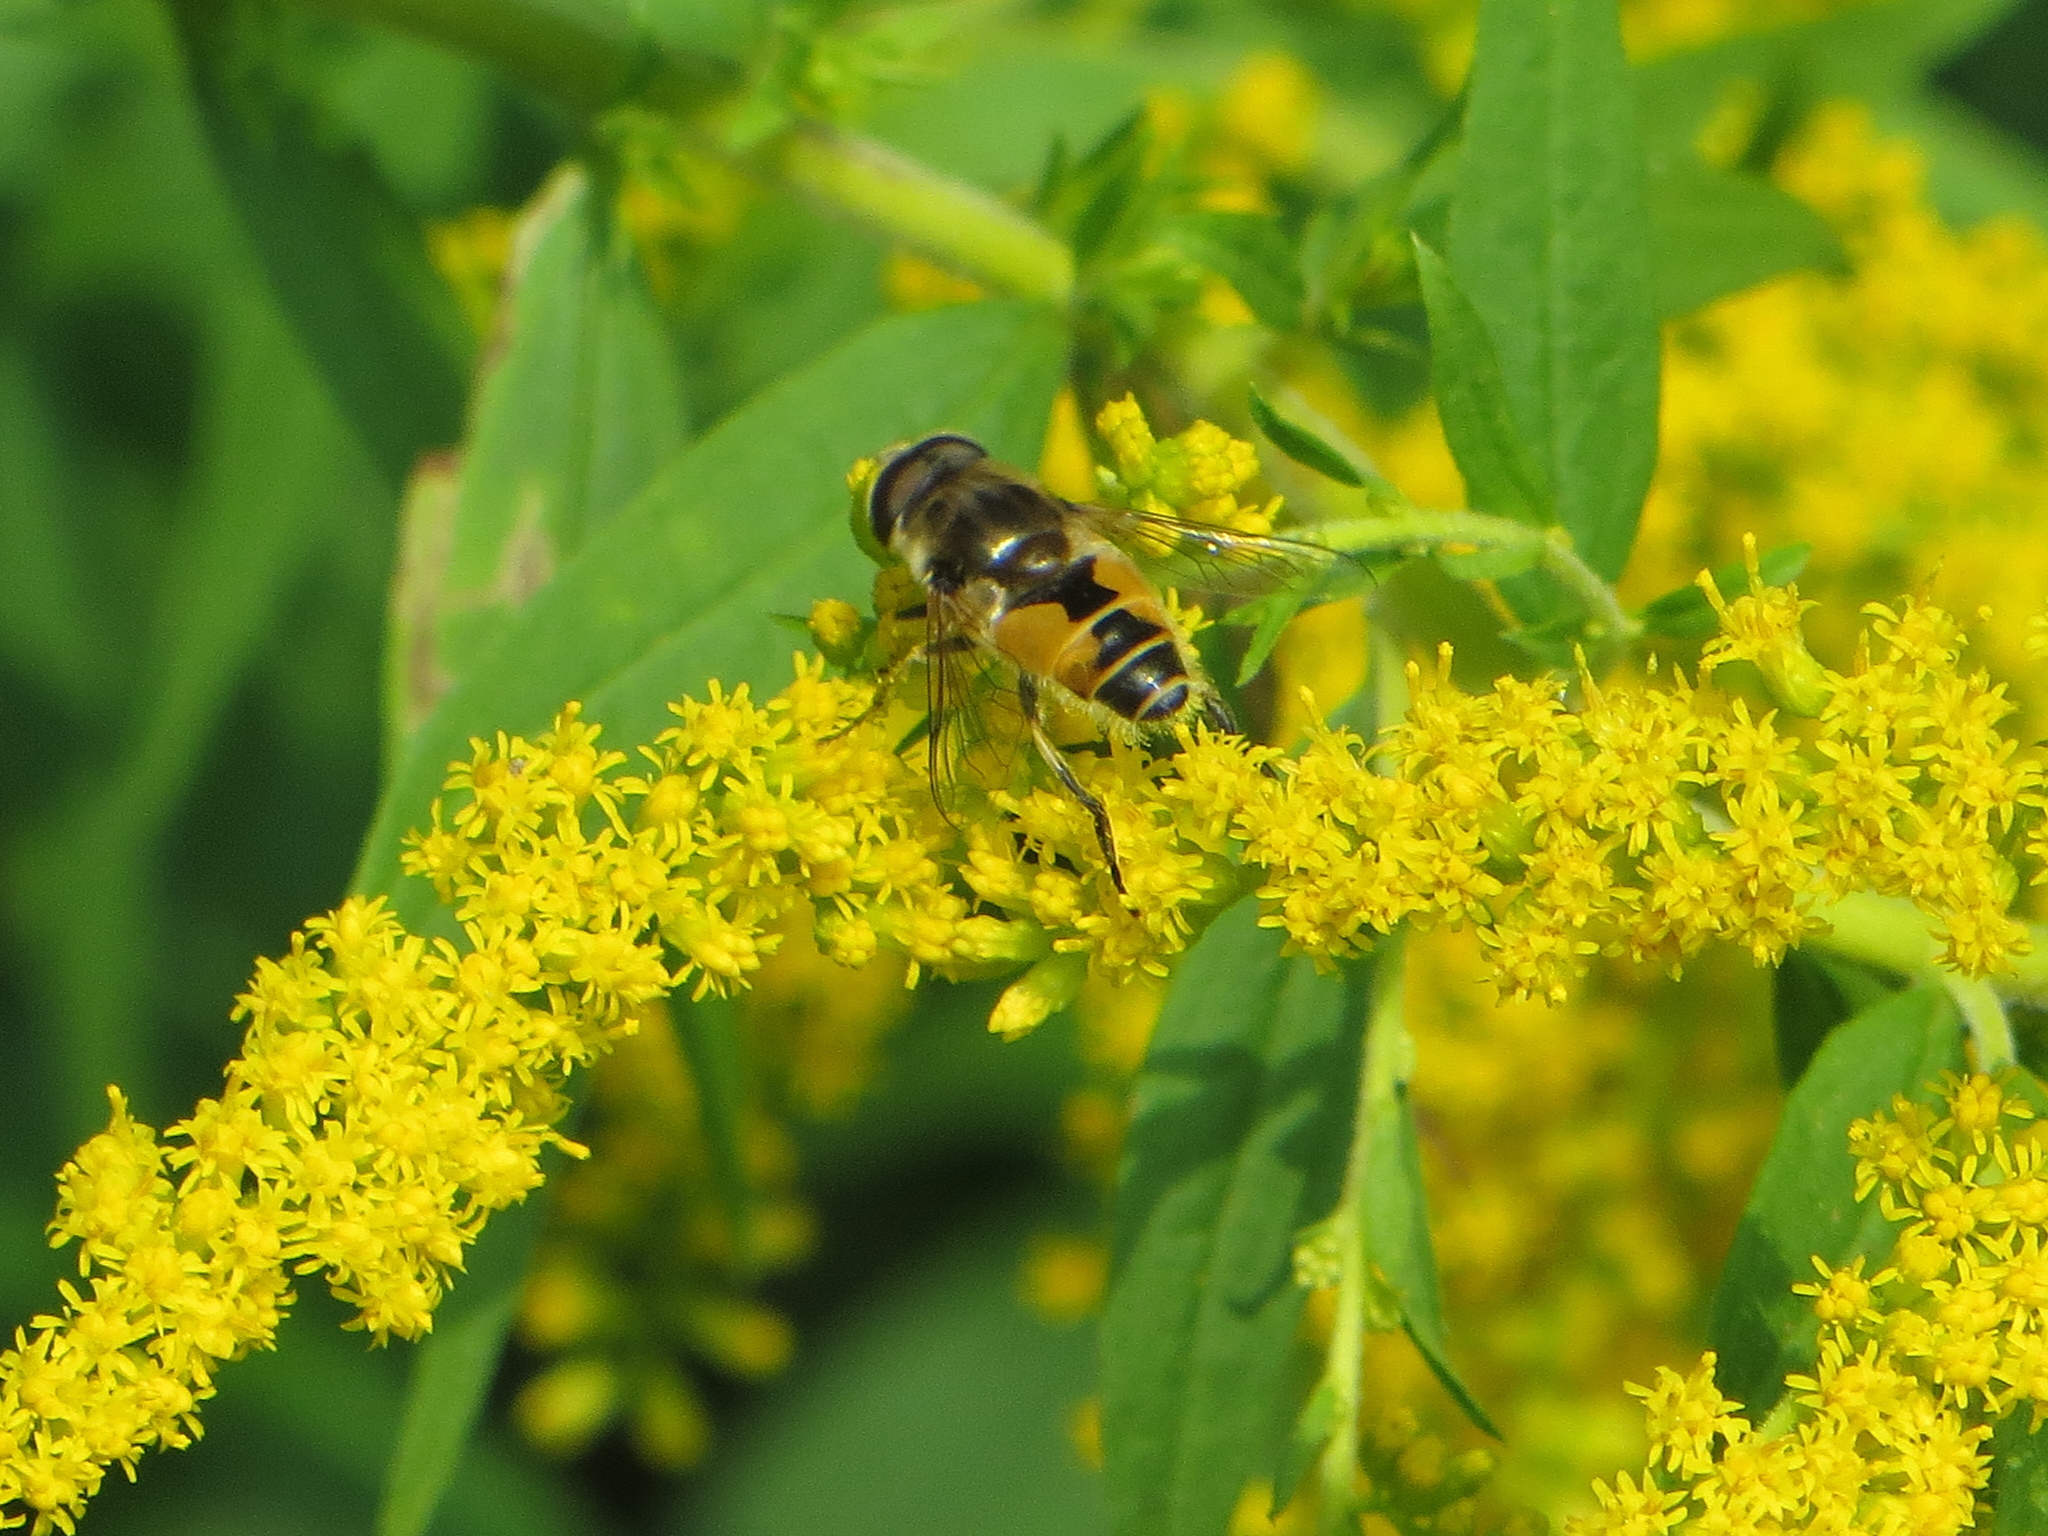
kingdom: Animalia
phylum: Arthropoda
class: Insecta
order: Diptera
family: Syrphidae
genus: Eristalis
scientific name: Eristalis arbustorum
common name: Hover fly
